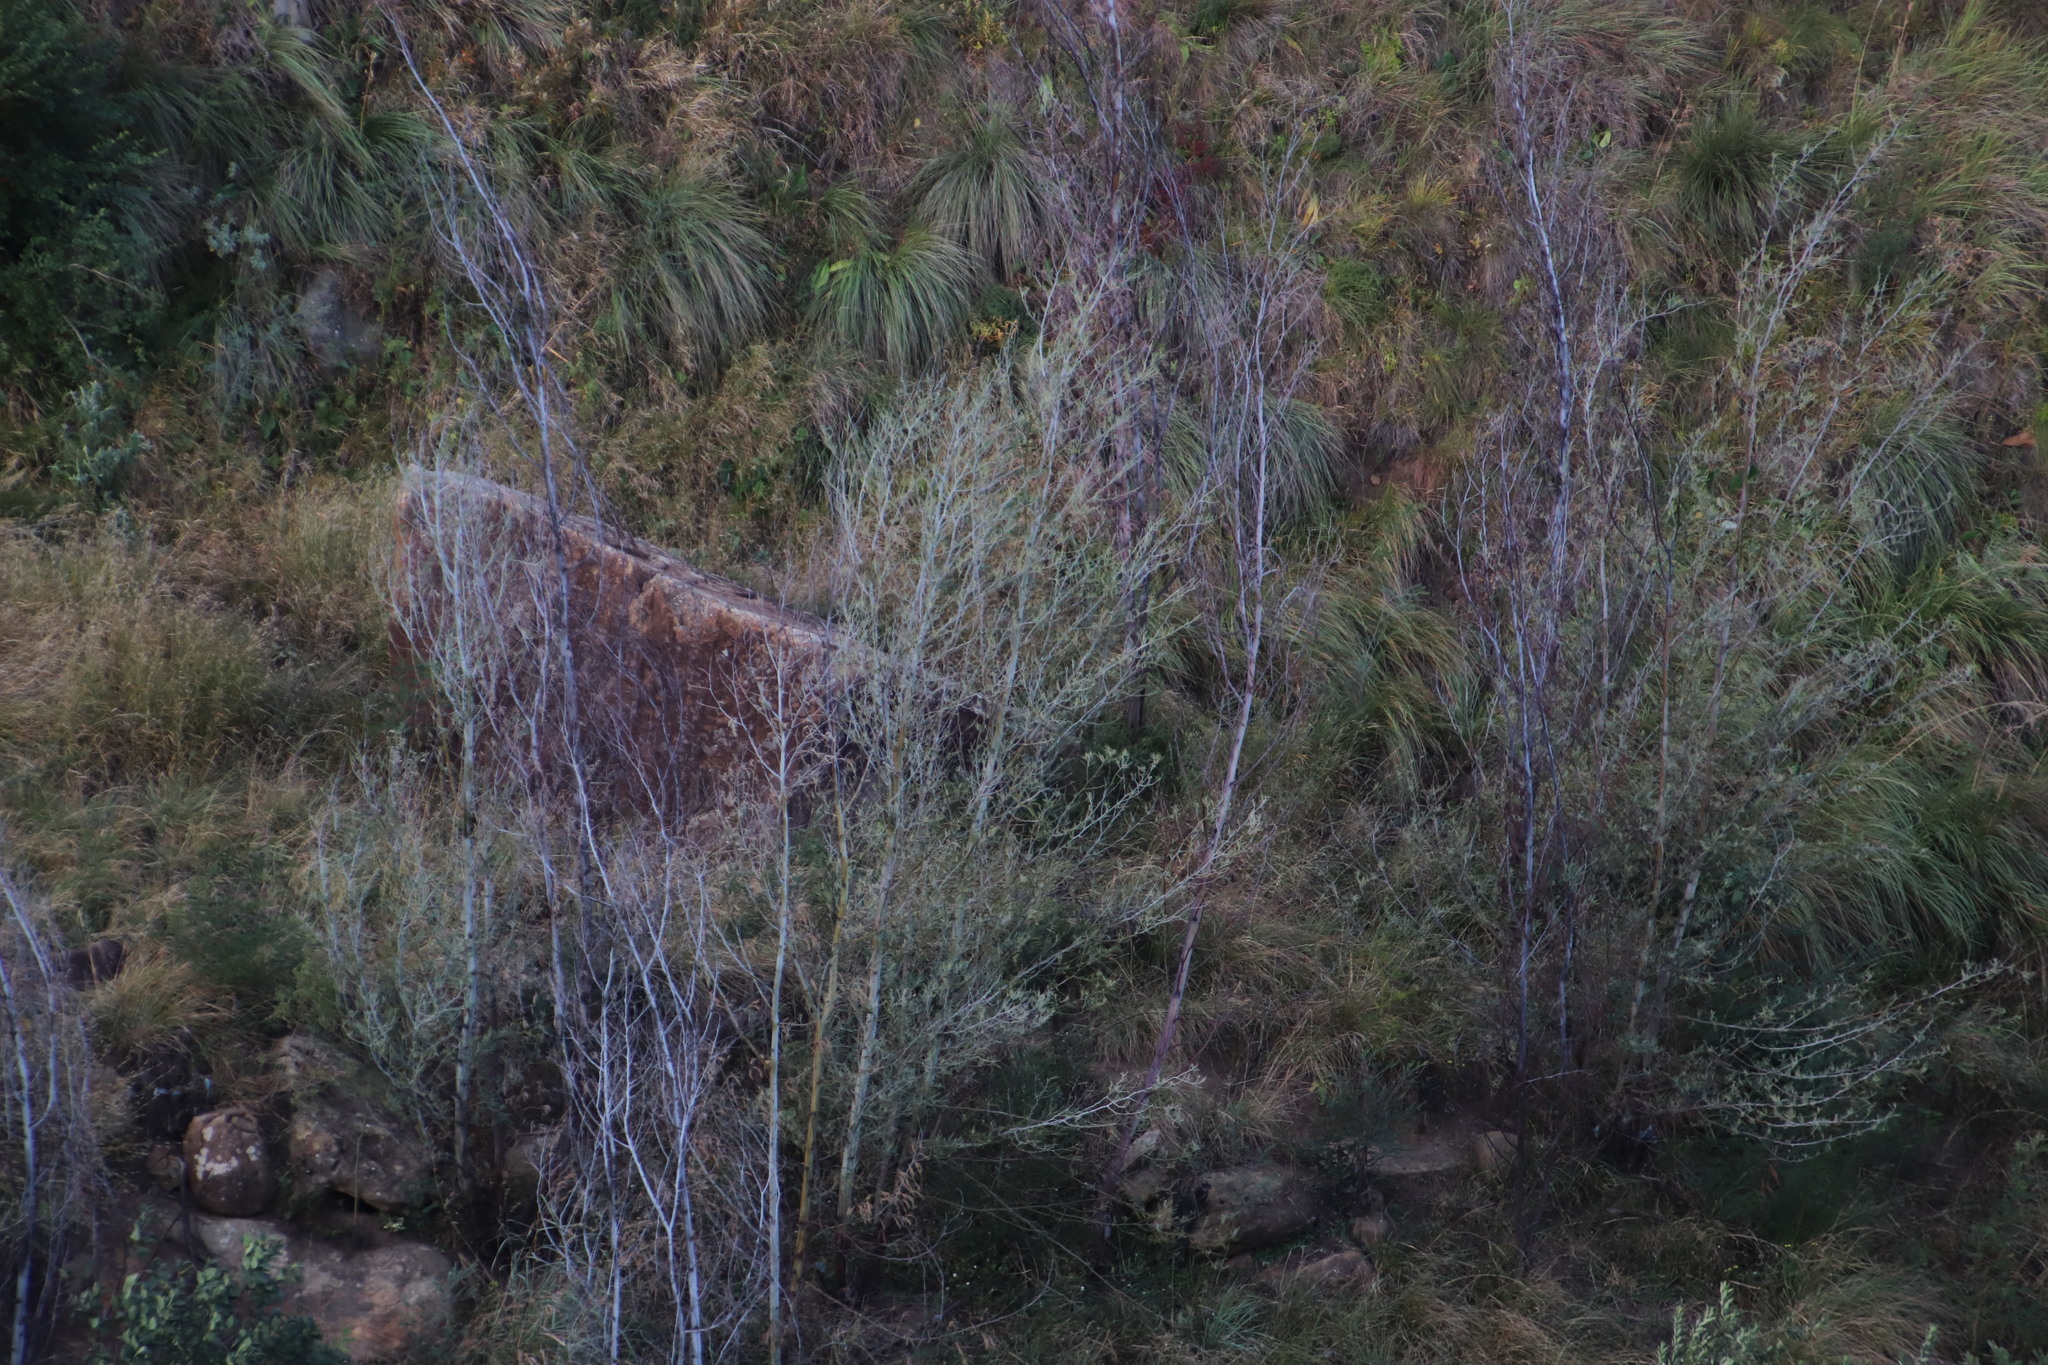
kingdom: Plantae
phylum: Tracheophyta
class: Magnoliopsida
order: Fabales
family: Fabaceae
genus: Acacia
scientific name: Acacia dealbata
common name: Silver wattle
